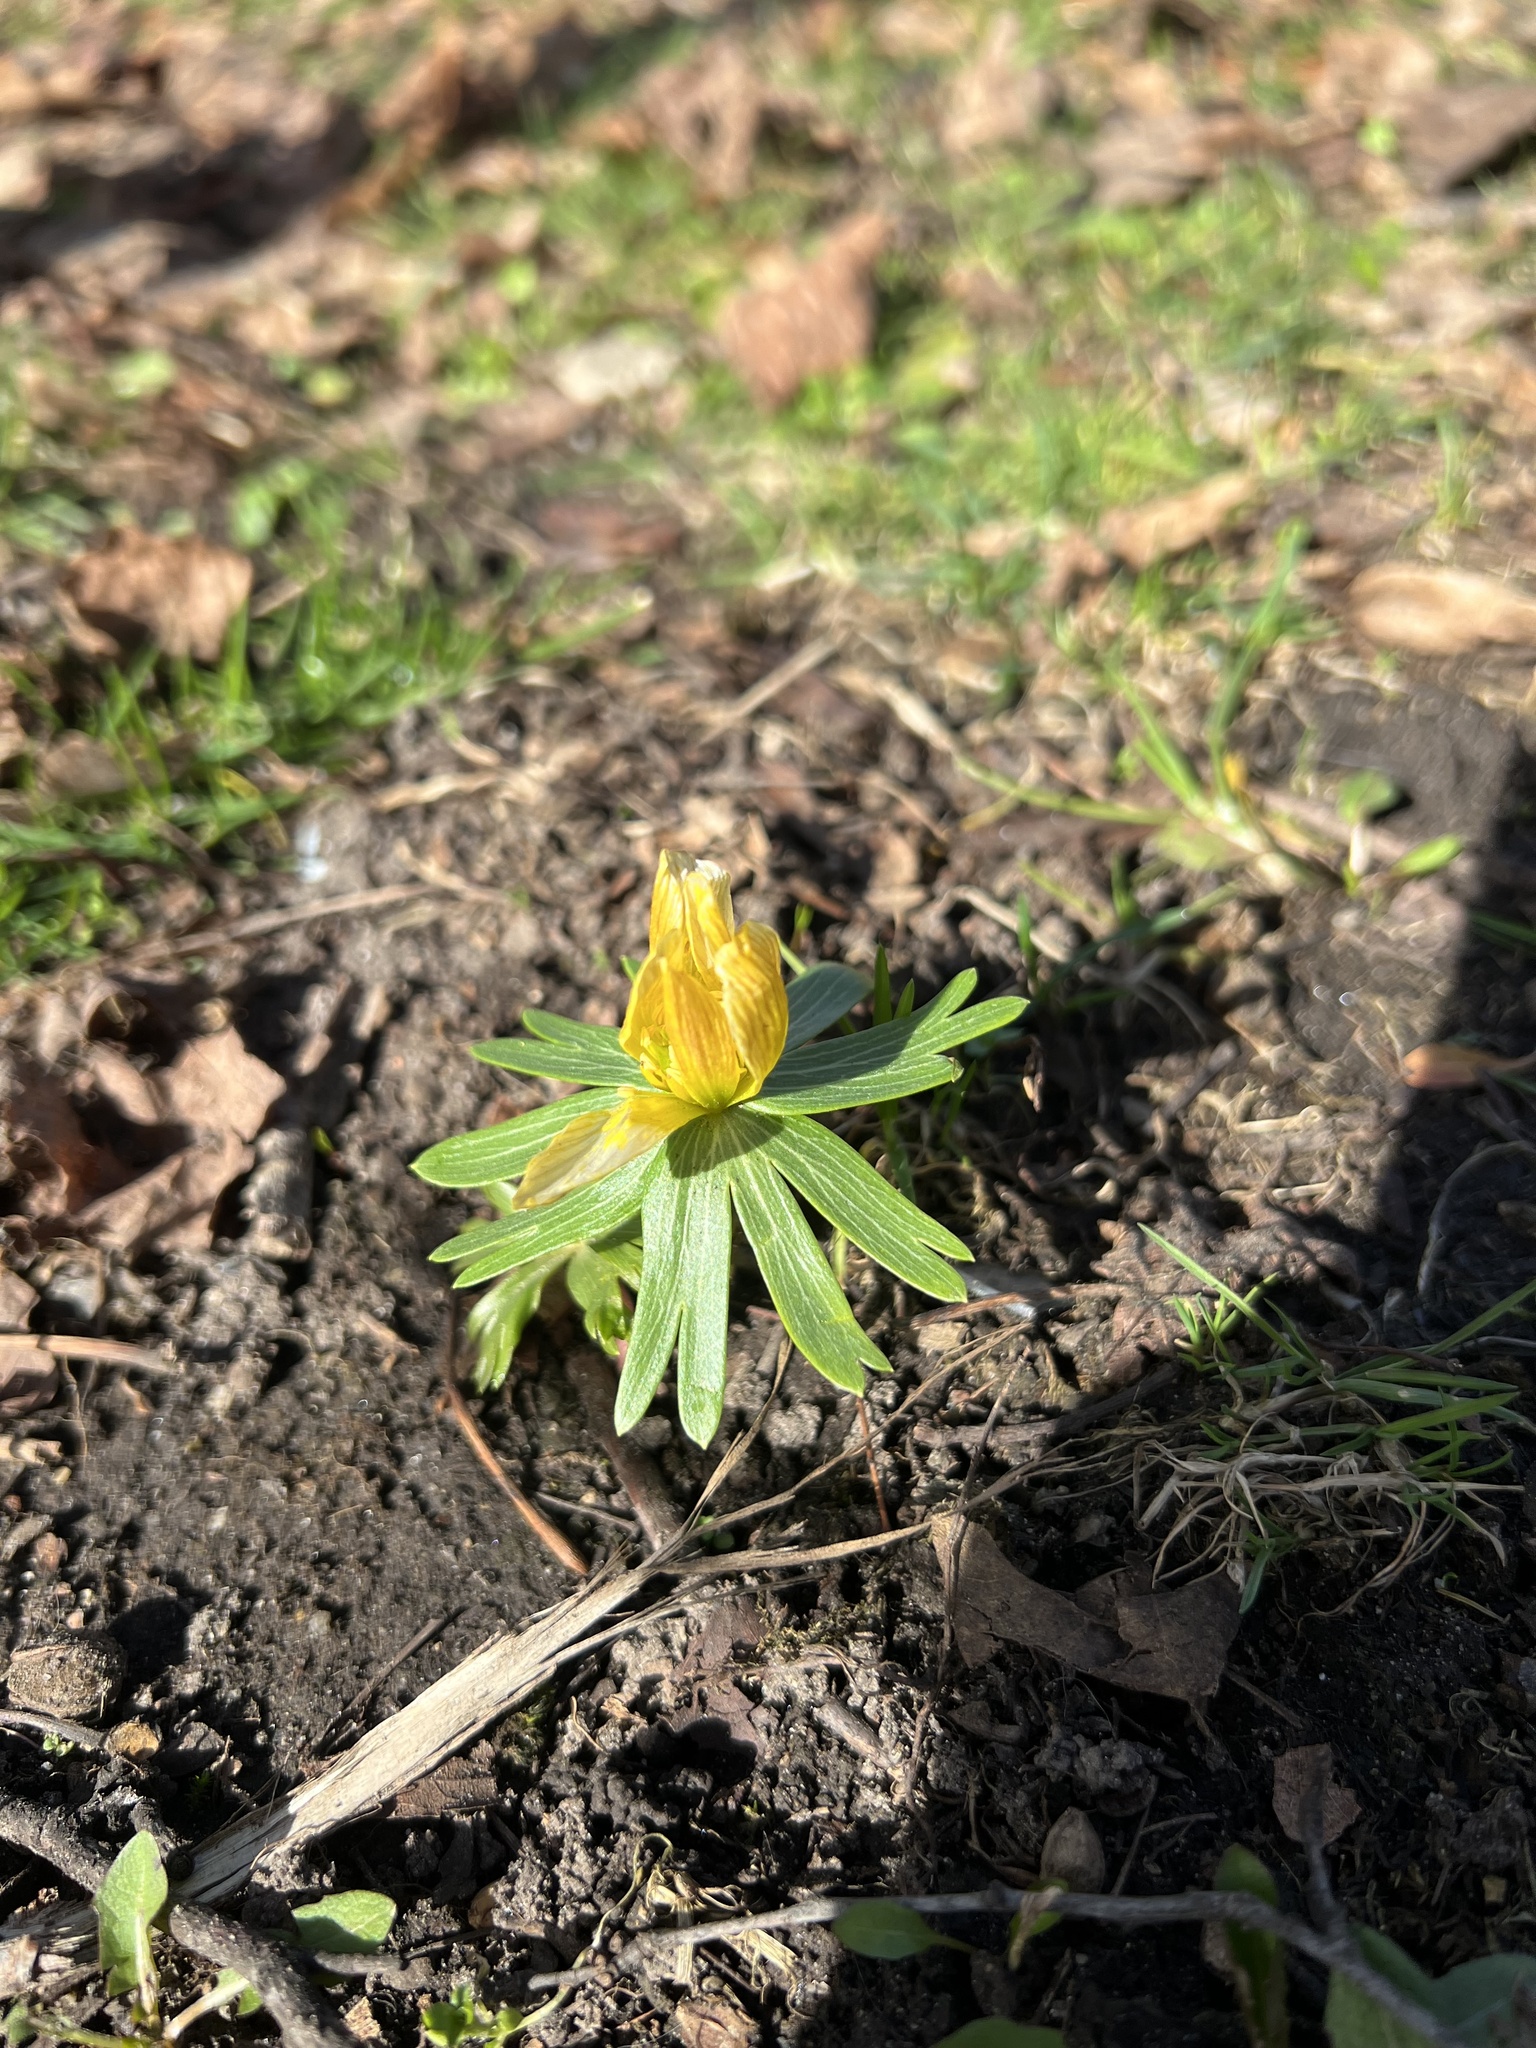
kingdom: Plantae
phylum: Tracheophyta
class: Magnoliopsida
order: Ranunculales
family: Ranunculaceae
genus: Eranthis
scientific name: Eranthis hyemalis
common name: Winter aconite
